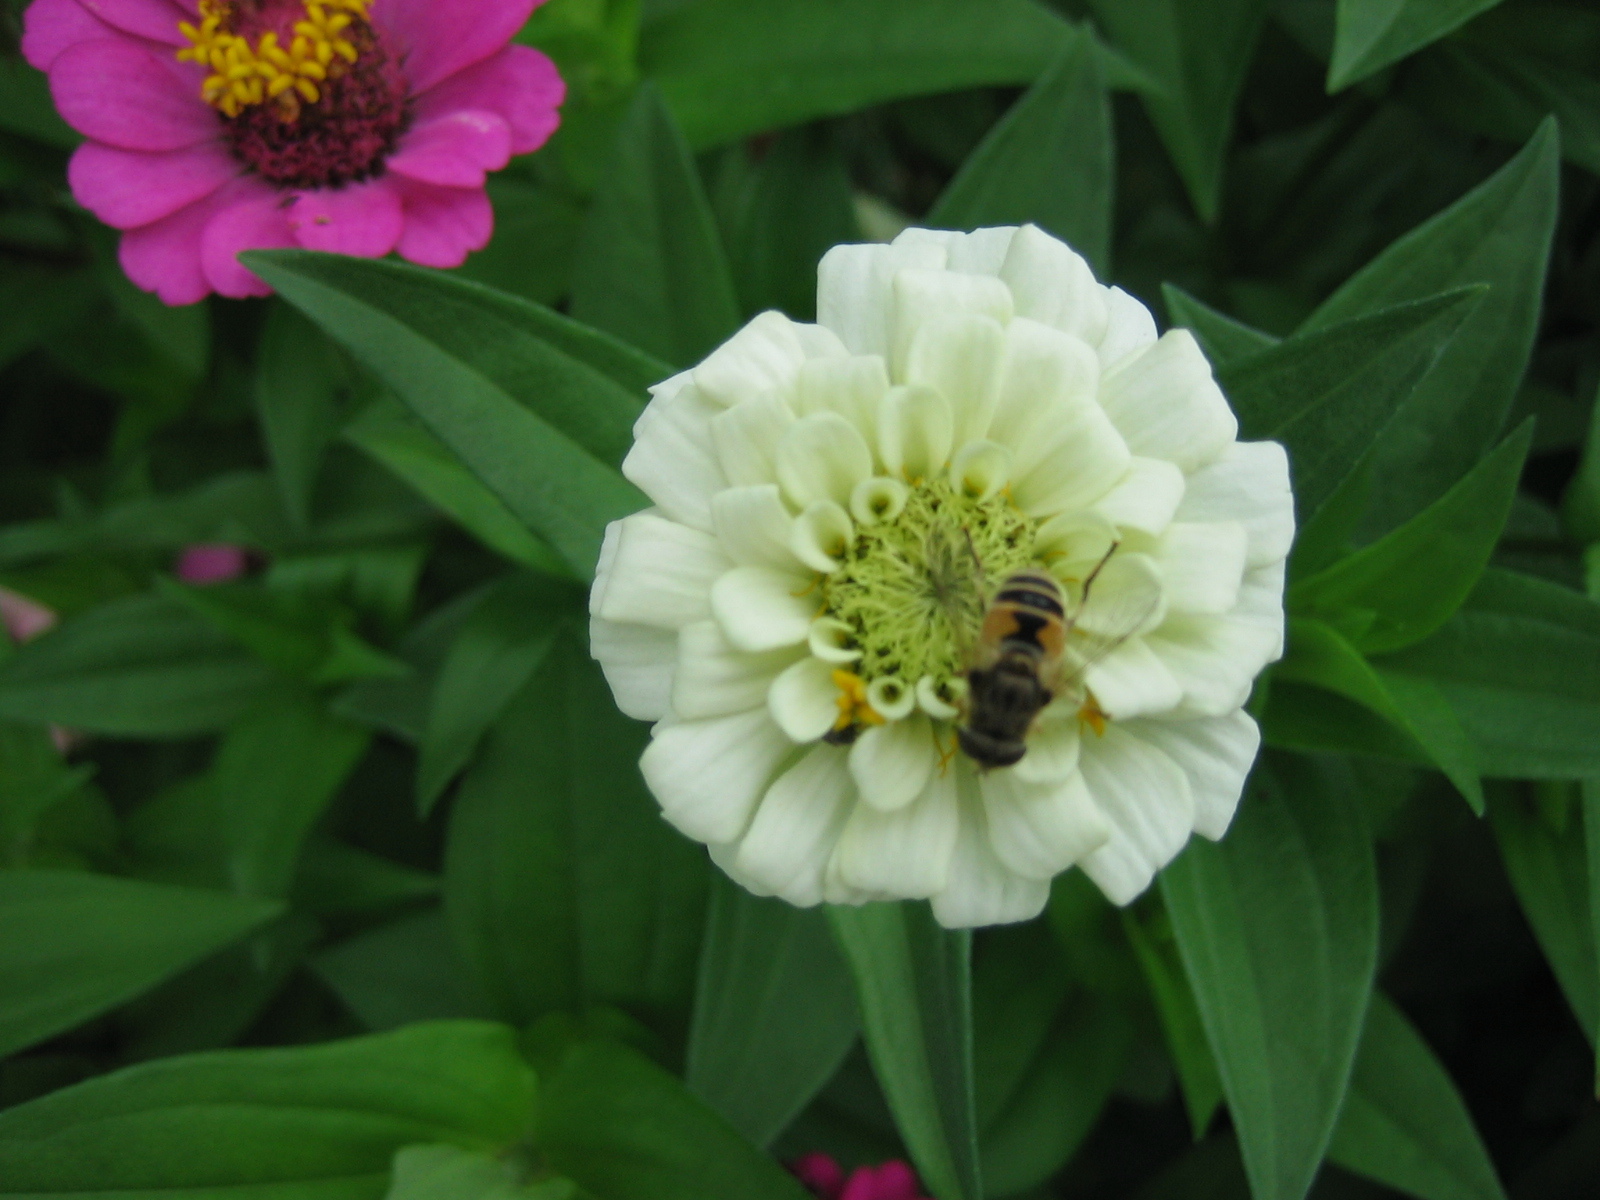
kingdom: Animalia
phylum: Arthropoda
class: Insecta
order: Diptera
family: Syrphidae
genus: Eristalis
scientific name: Eristalis arbustorum
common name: Hover fly
